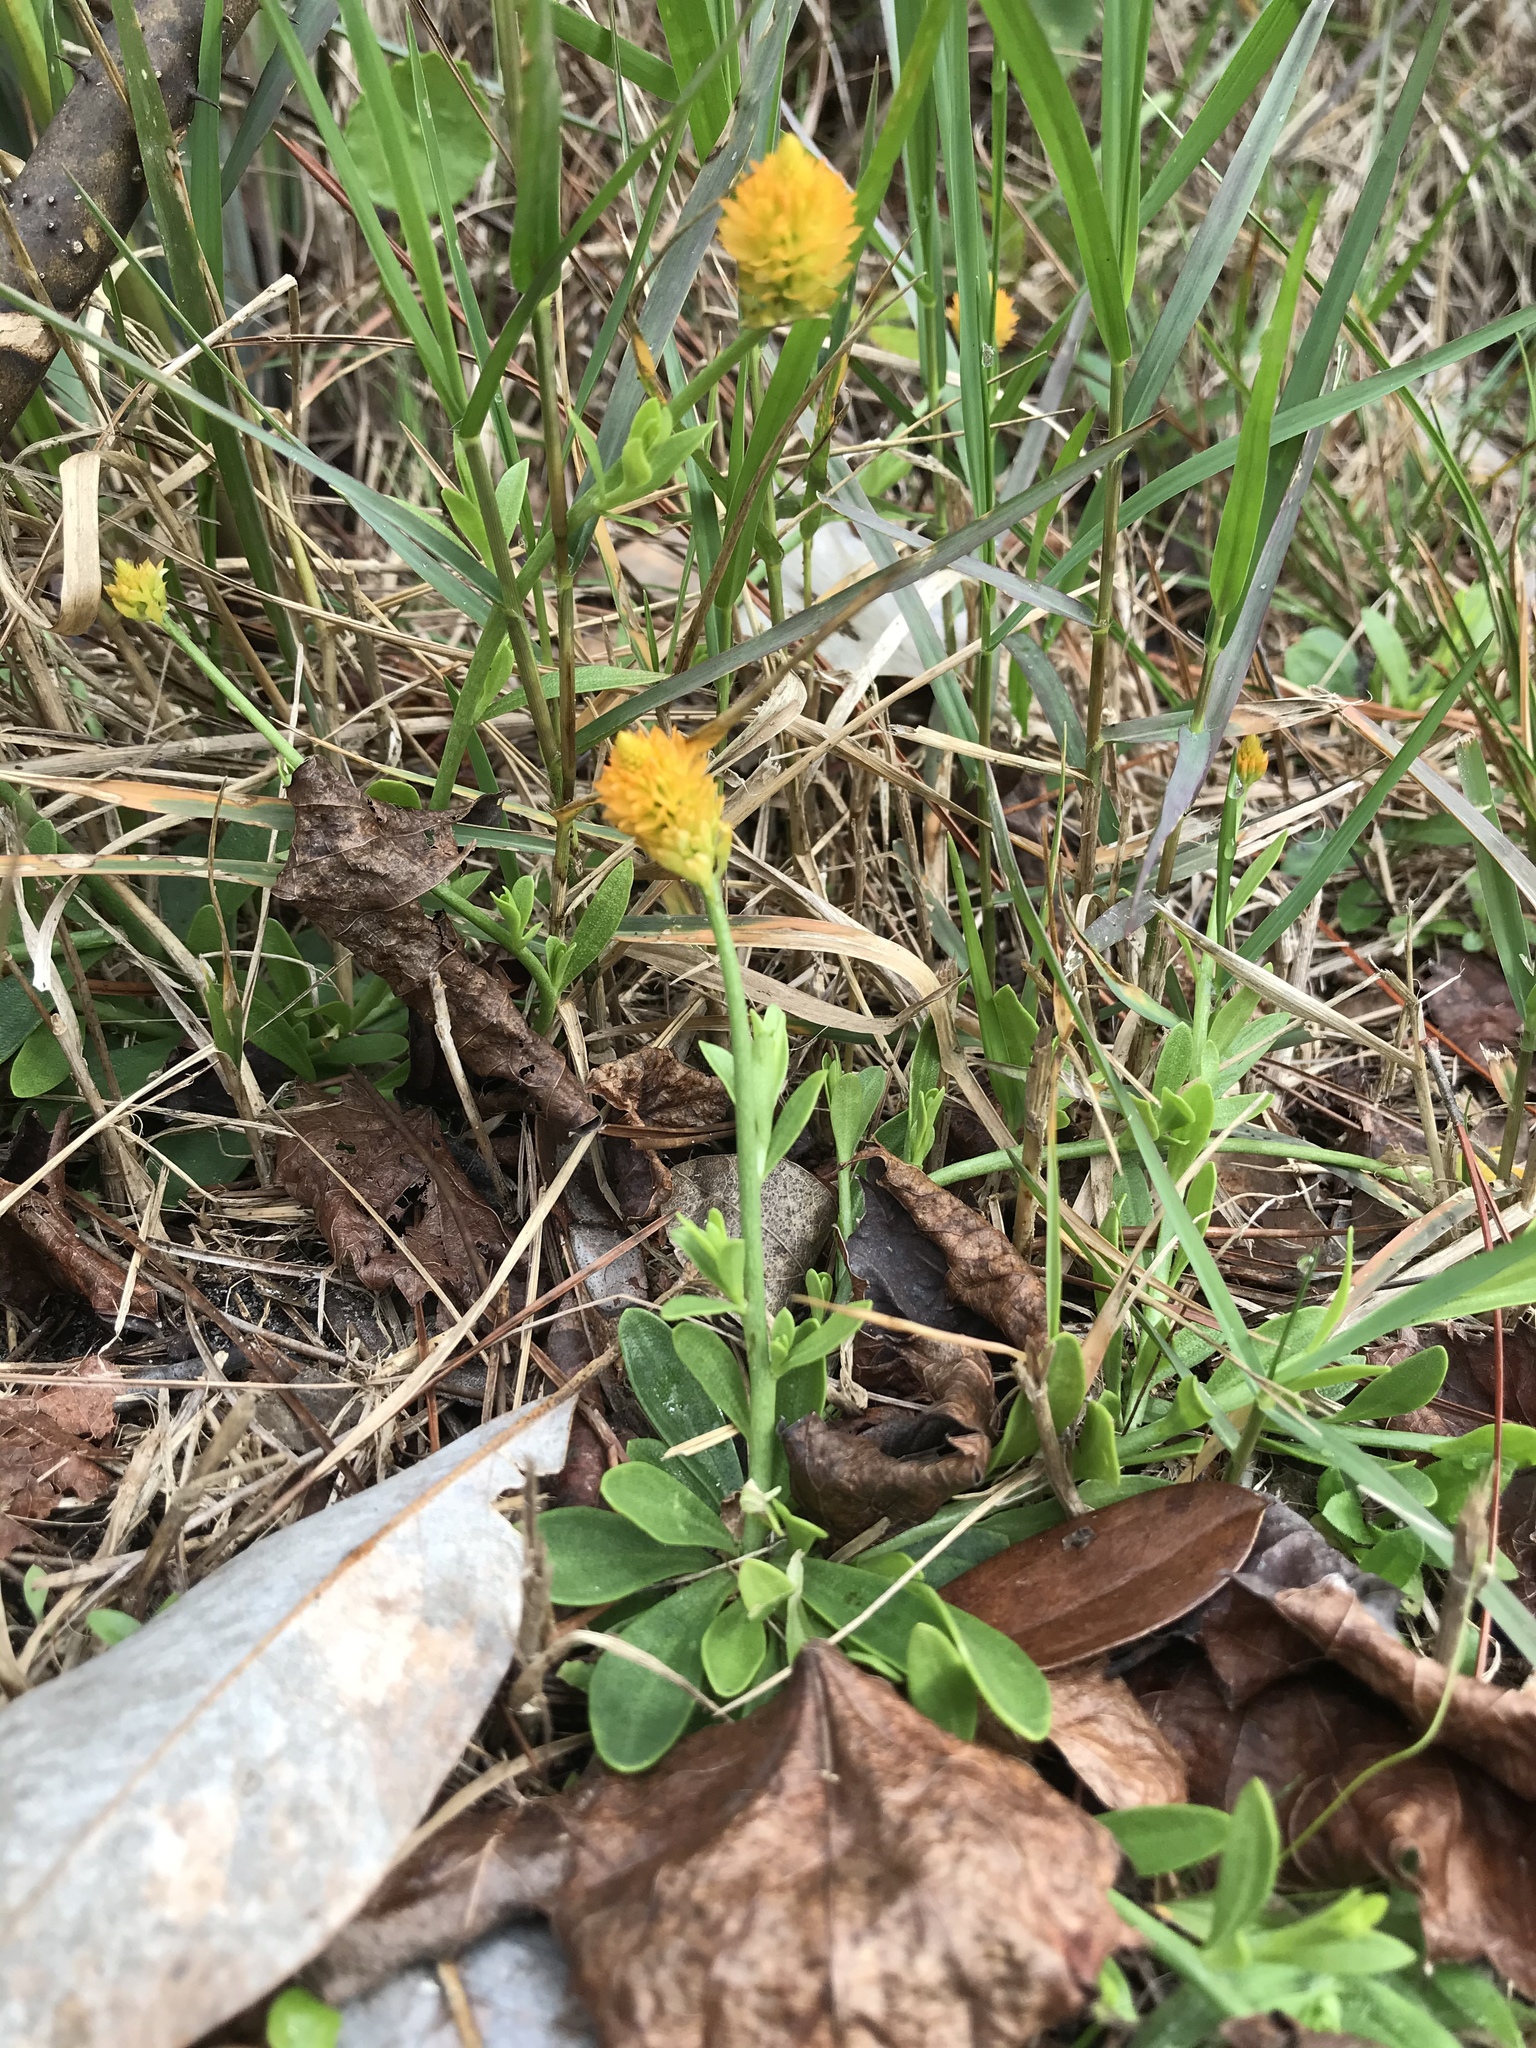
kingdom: Plantae
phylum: Tracheophyta
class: Magnoliopsida
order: Fabales
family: Polygalaceae
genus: Polygala
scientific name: Polygala lutea
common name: Orange milkwort
